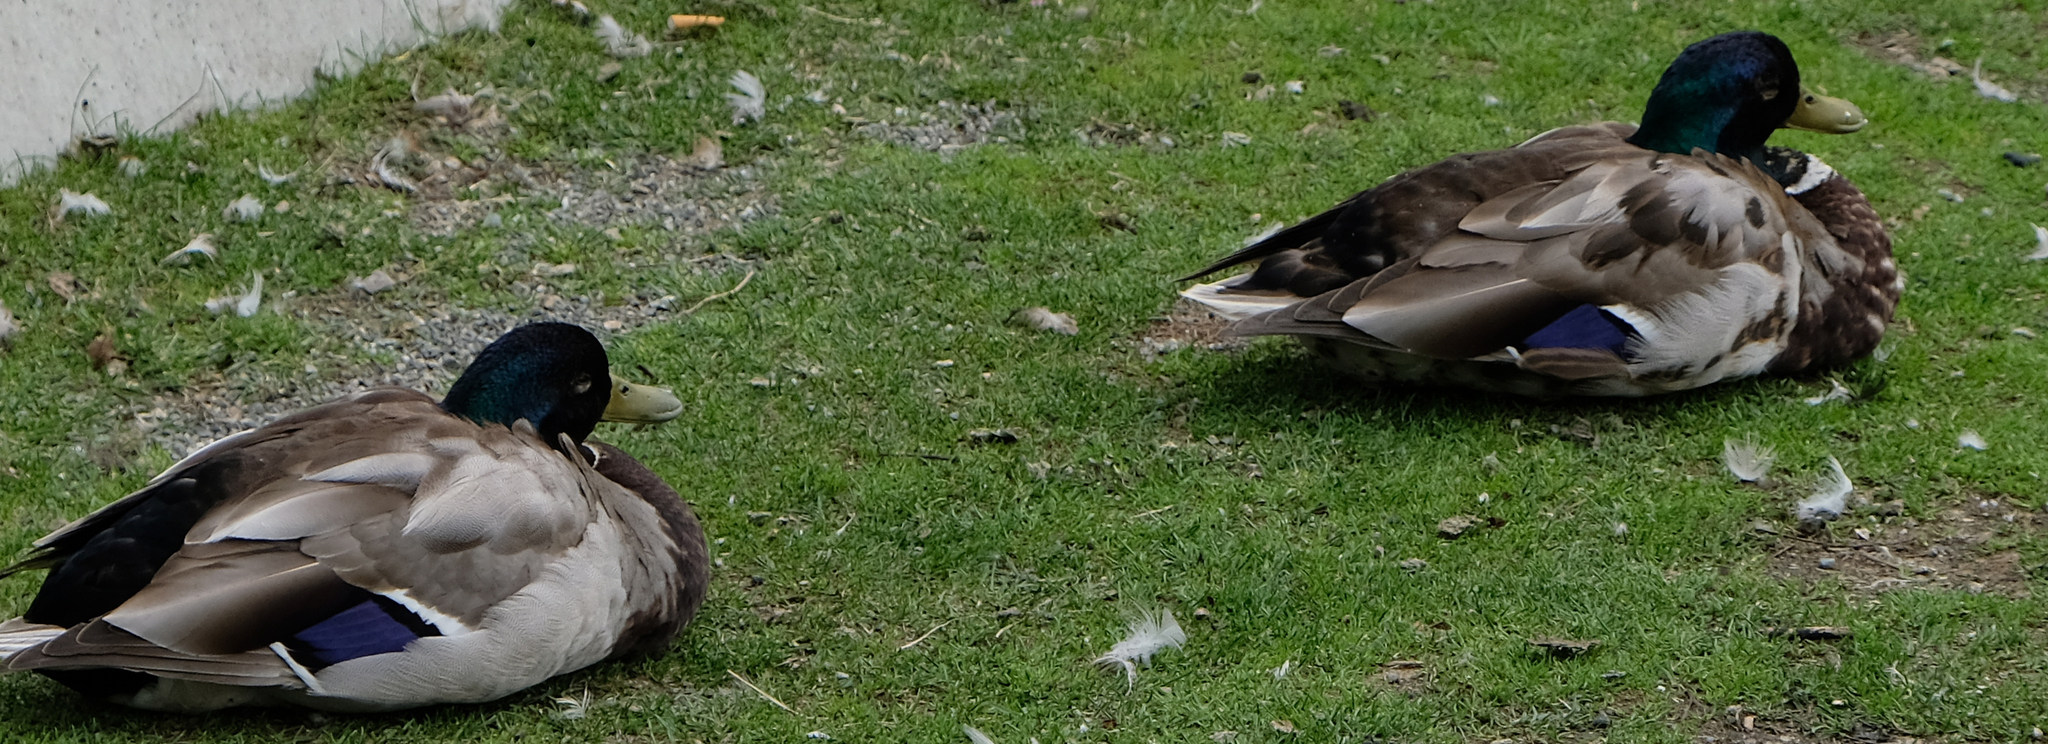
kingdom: Animalia
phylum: Chordata
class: Aves
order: Anseriformes
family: Anatidae
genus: Anas
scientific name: Anas platyrhynchos
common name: Mallard
